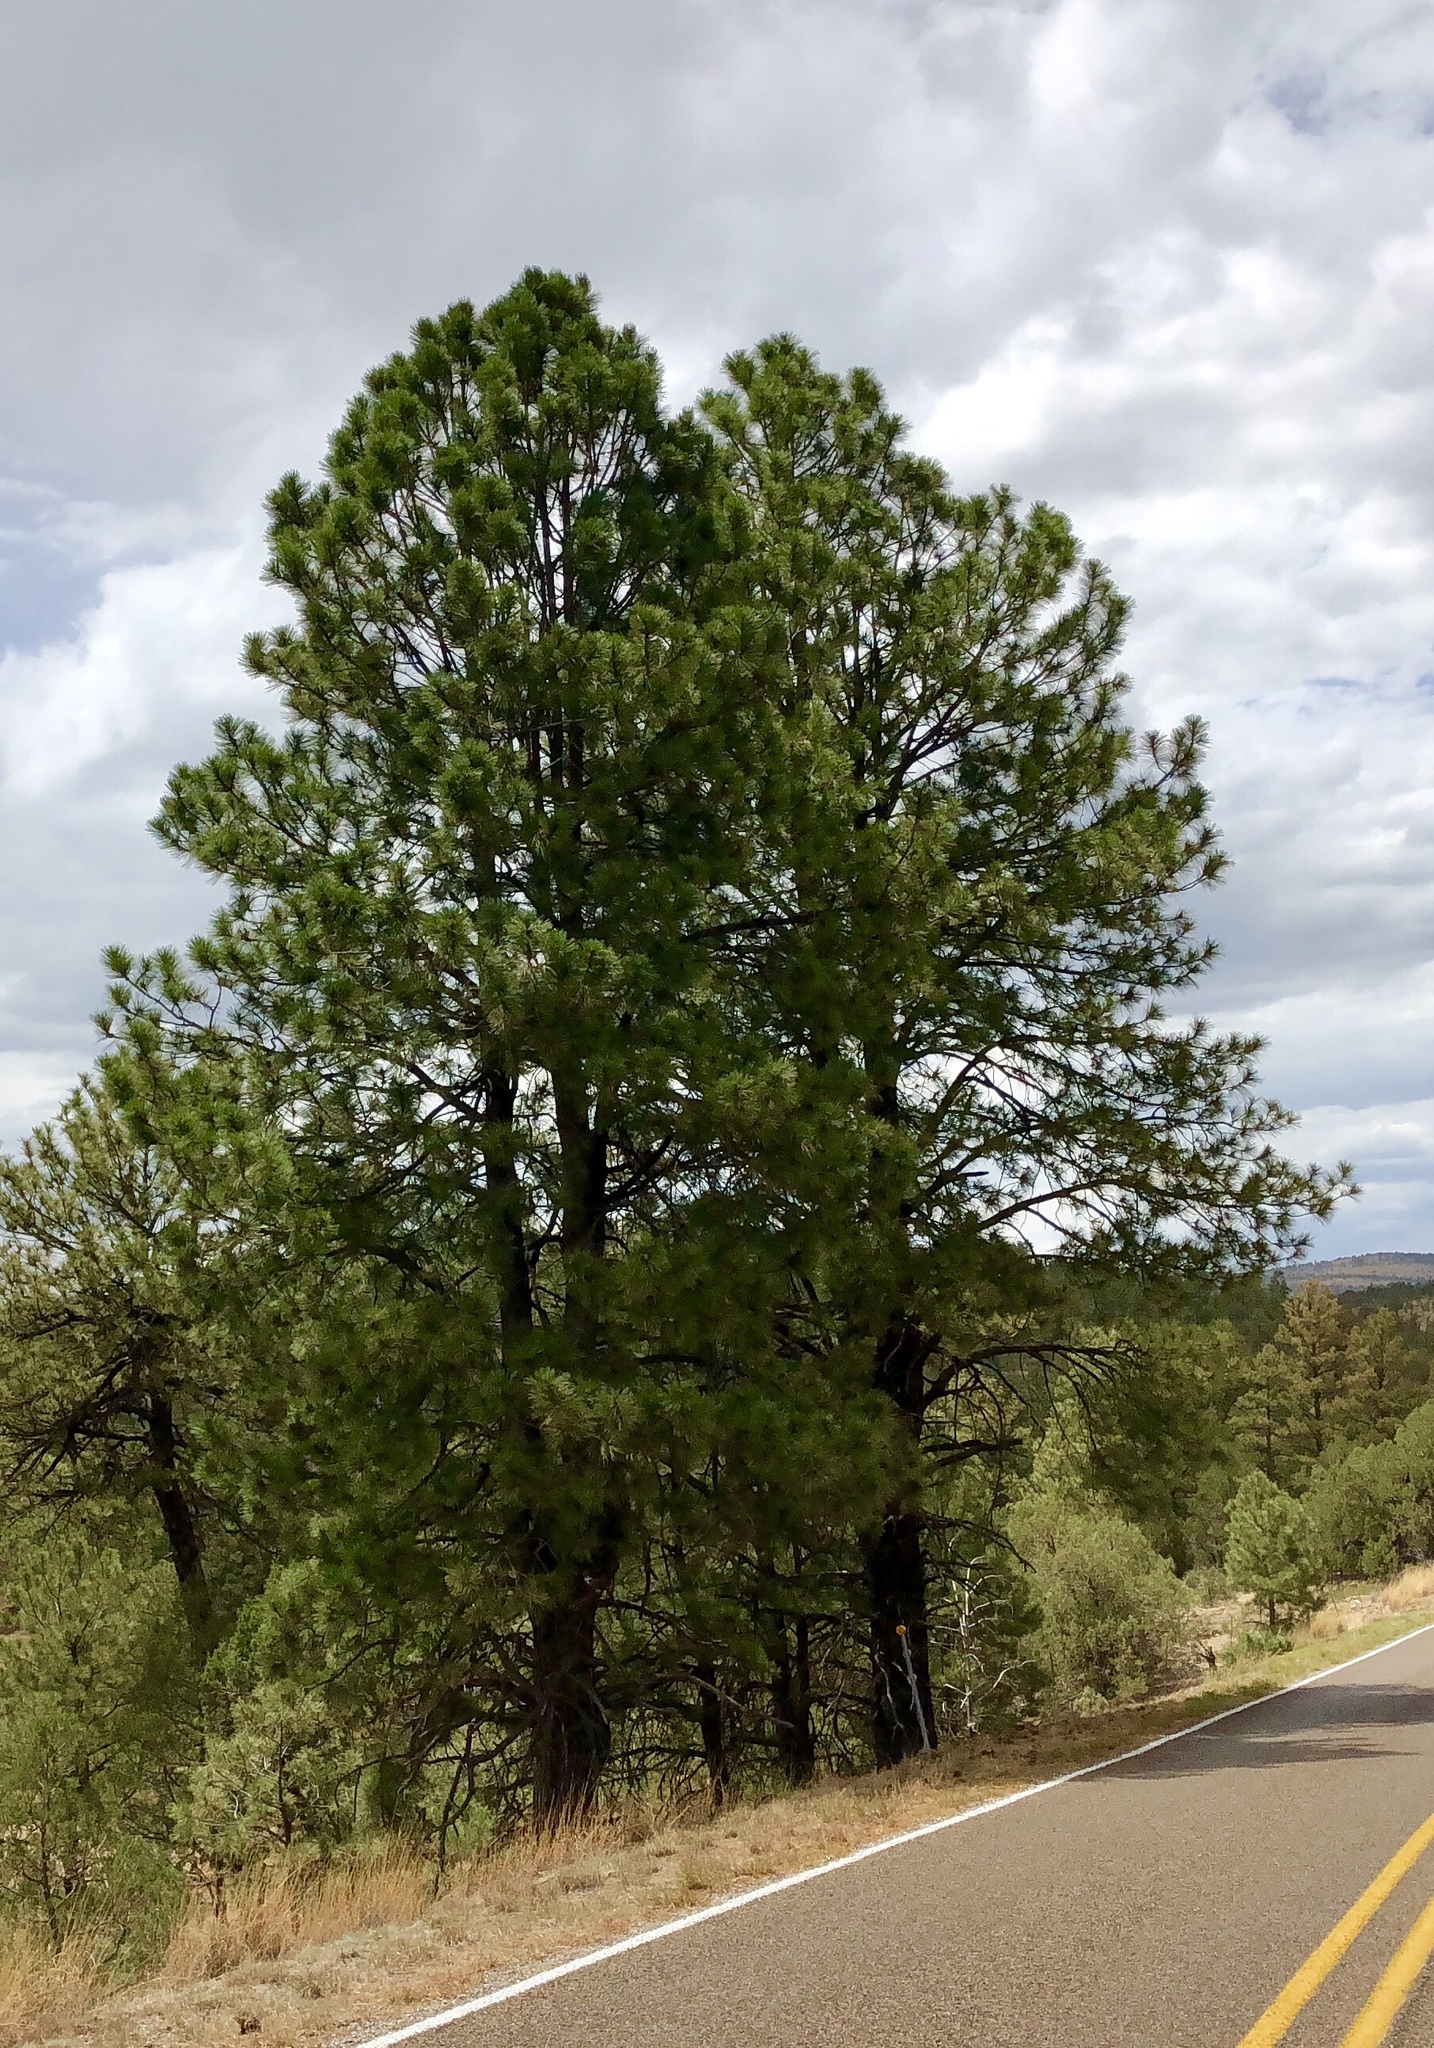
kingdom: Plantae
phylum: Tracheophyta
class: Pinopsida
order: Pinales
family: Pinaceae
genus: Pinus
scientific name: Pinus ponderosa
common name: Western yellow-pine
